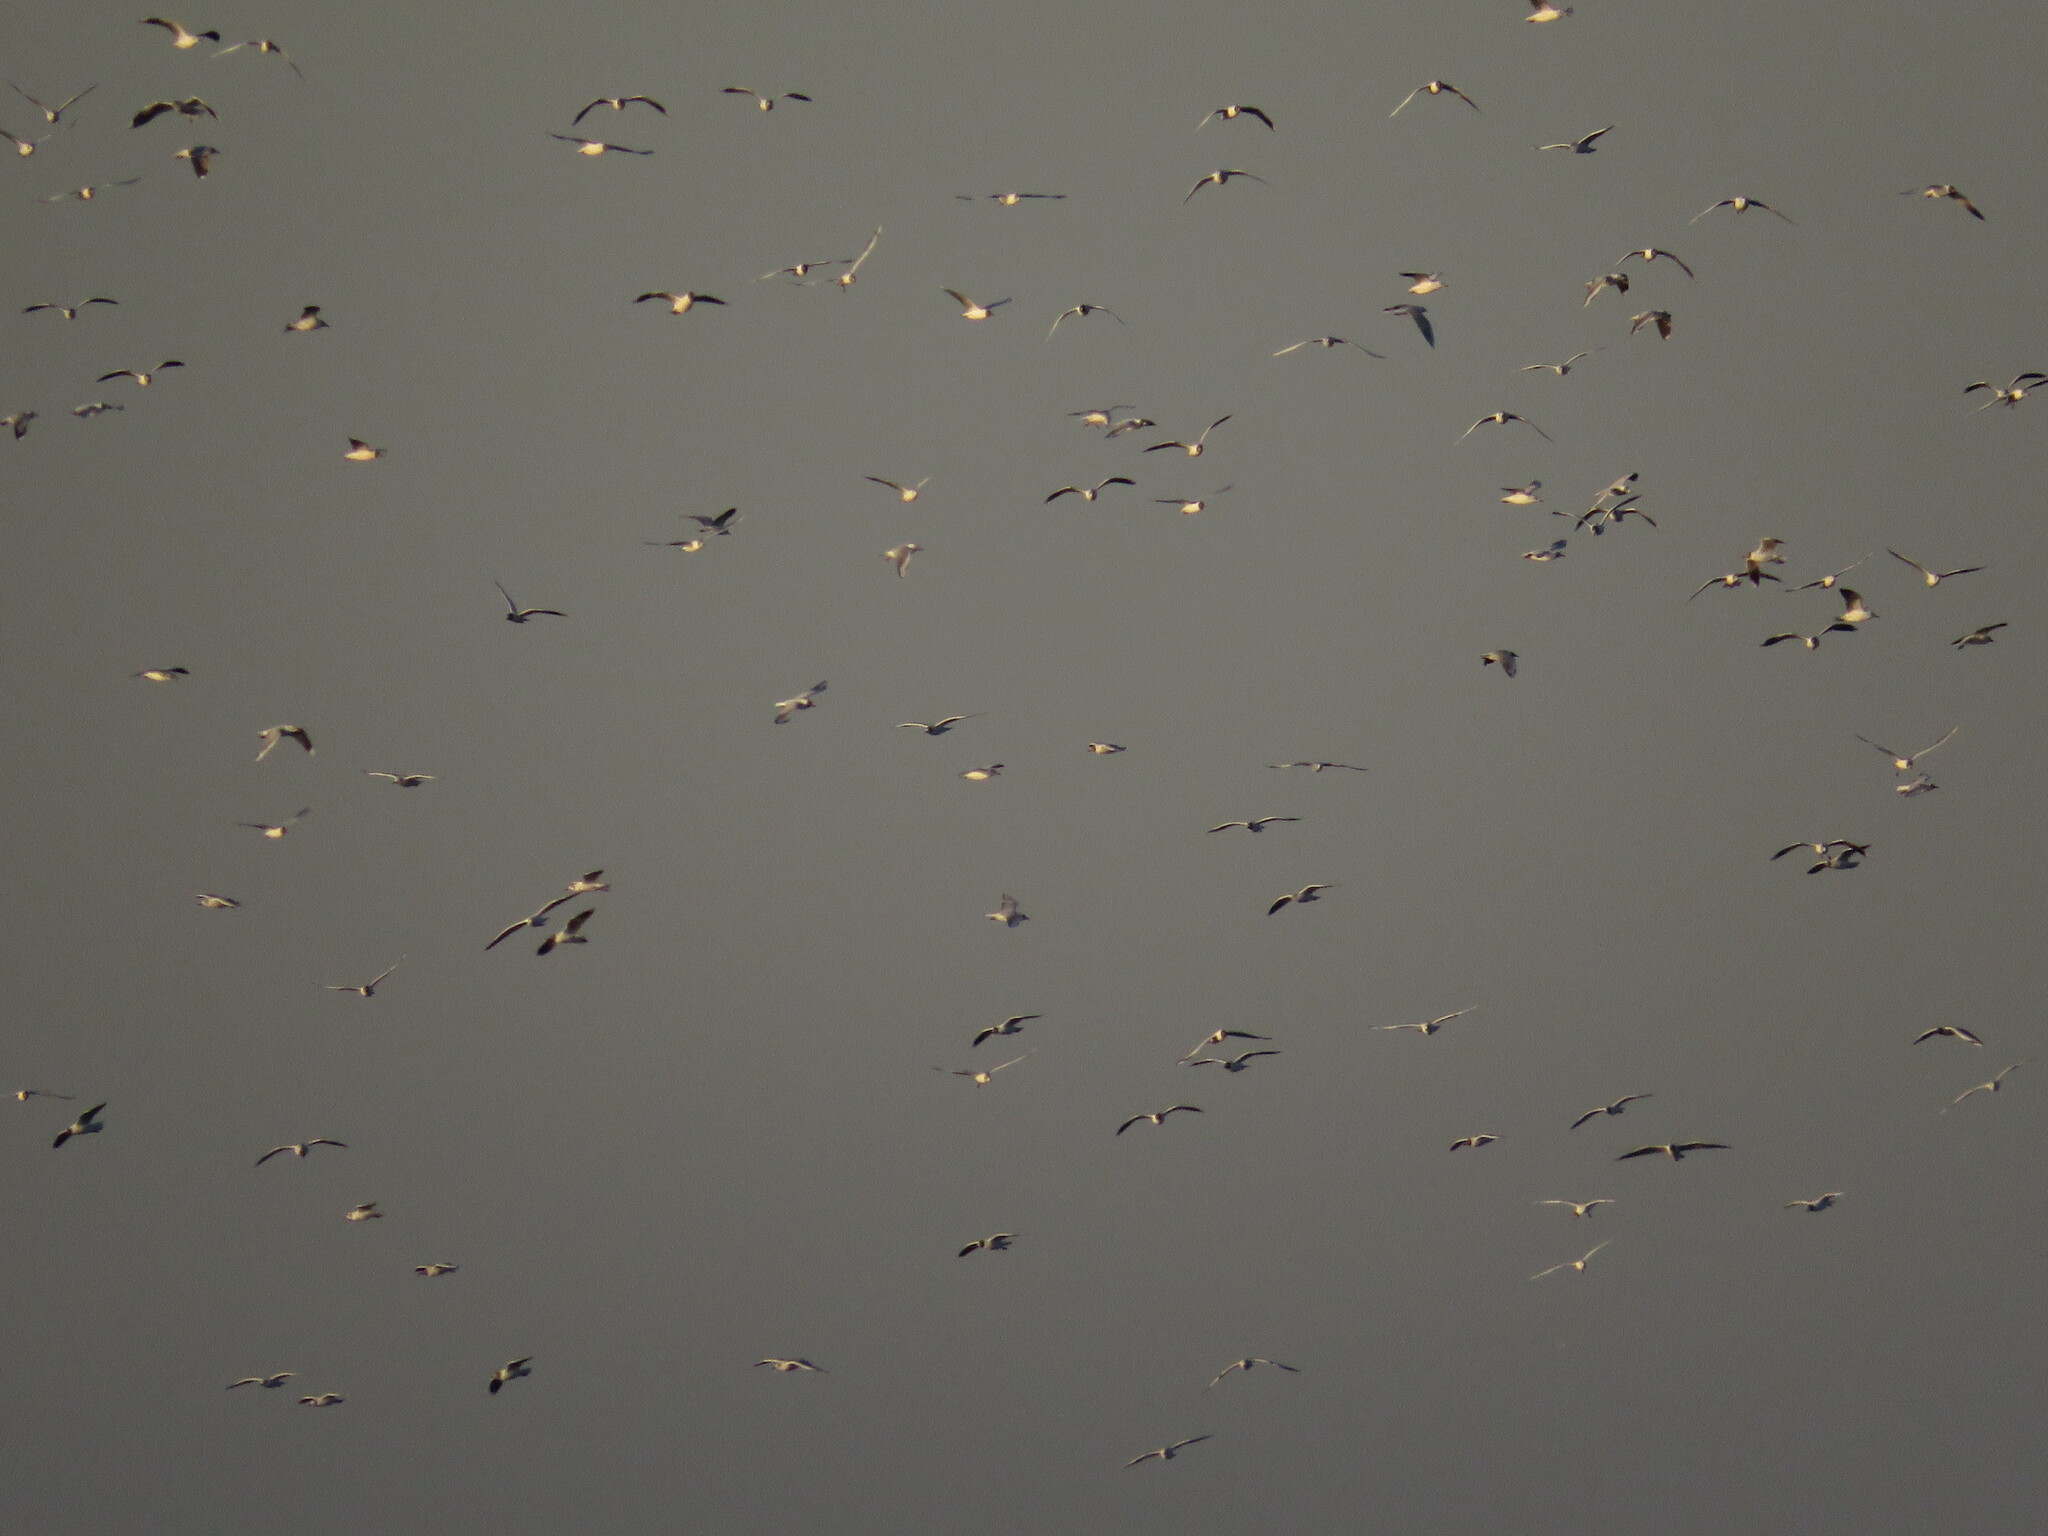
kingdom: Animalia
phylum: Chordata
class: Aves
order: Charadriiformes
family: Laridae
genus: Chroicocephalus
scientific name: Chroicocephalus maculipennis
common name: Brown-hooded gull
